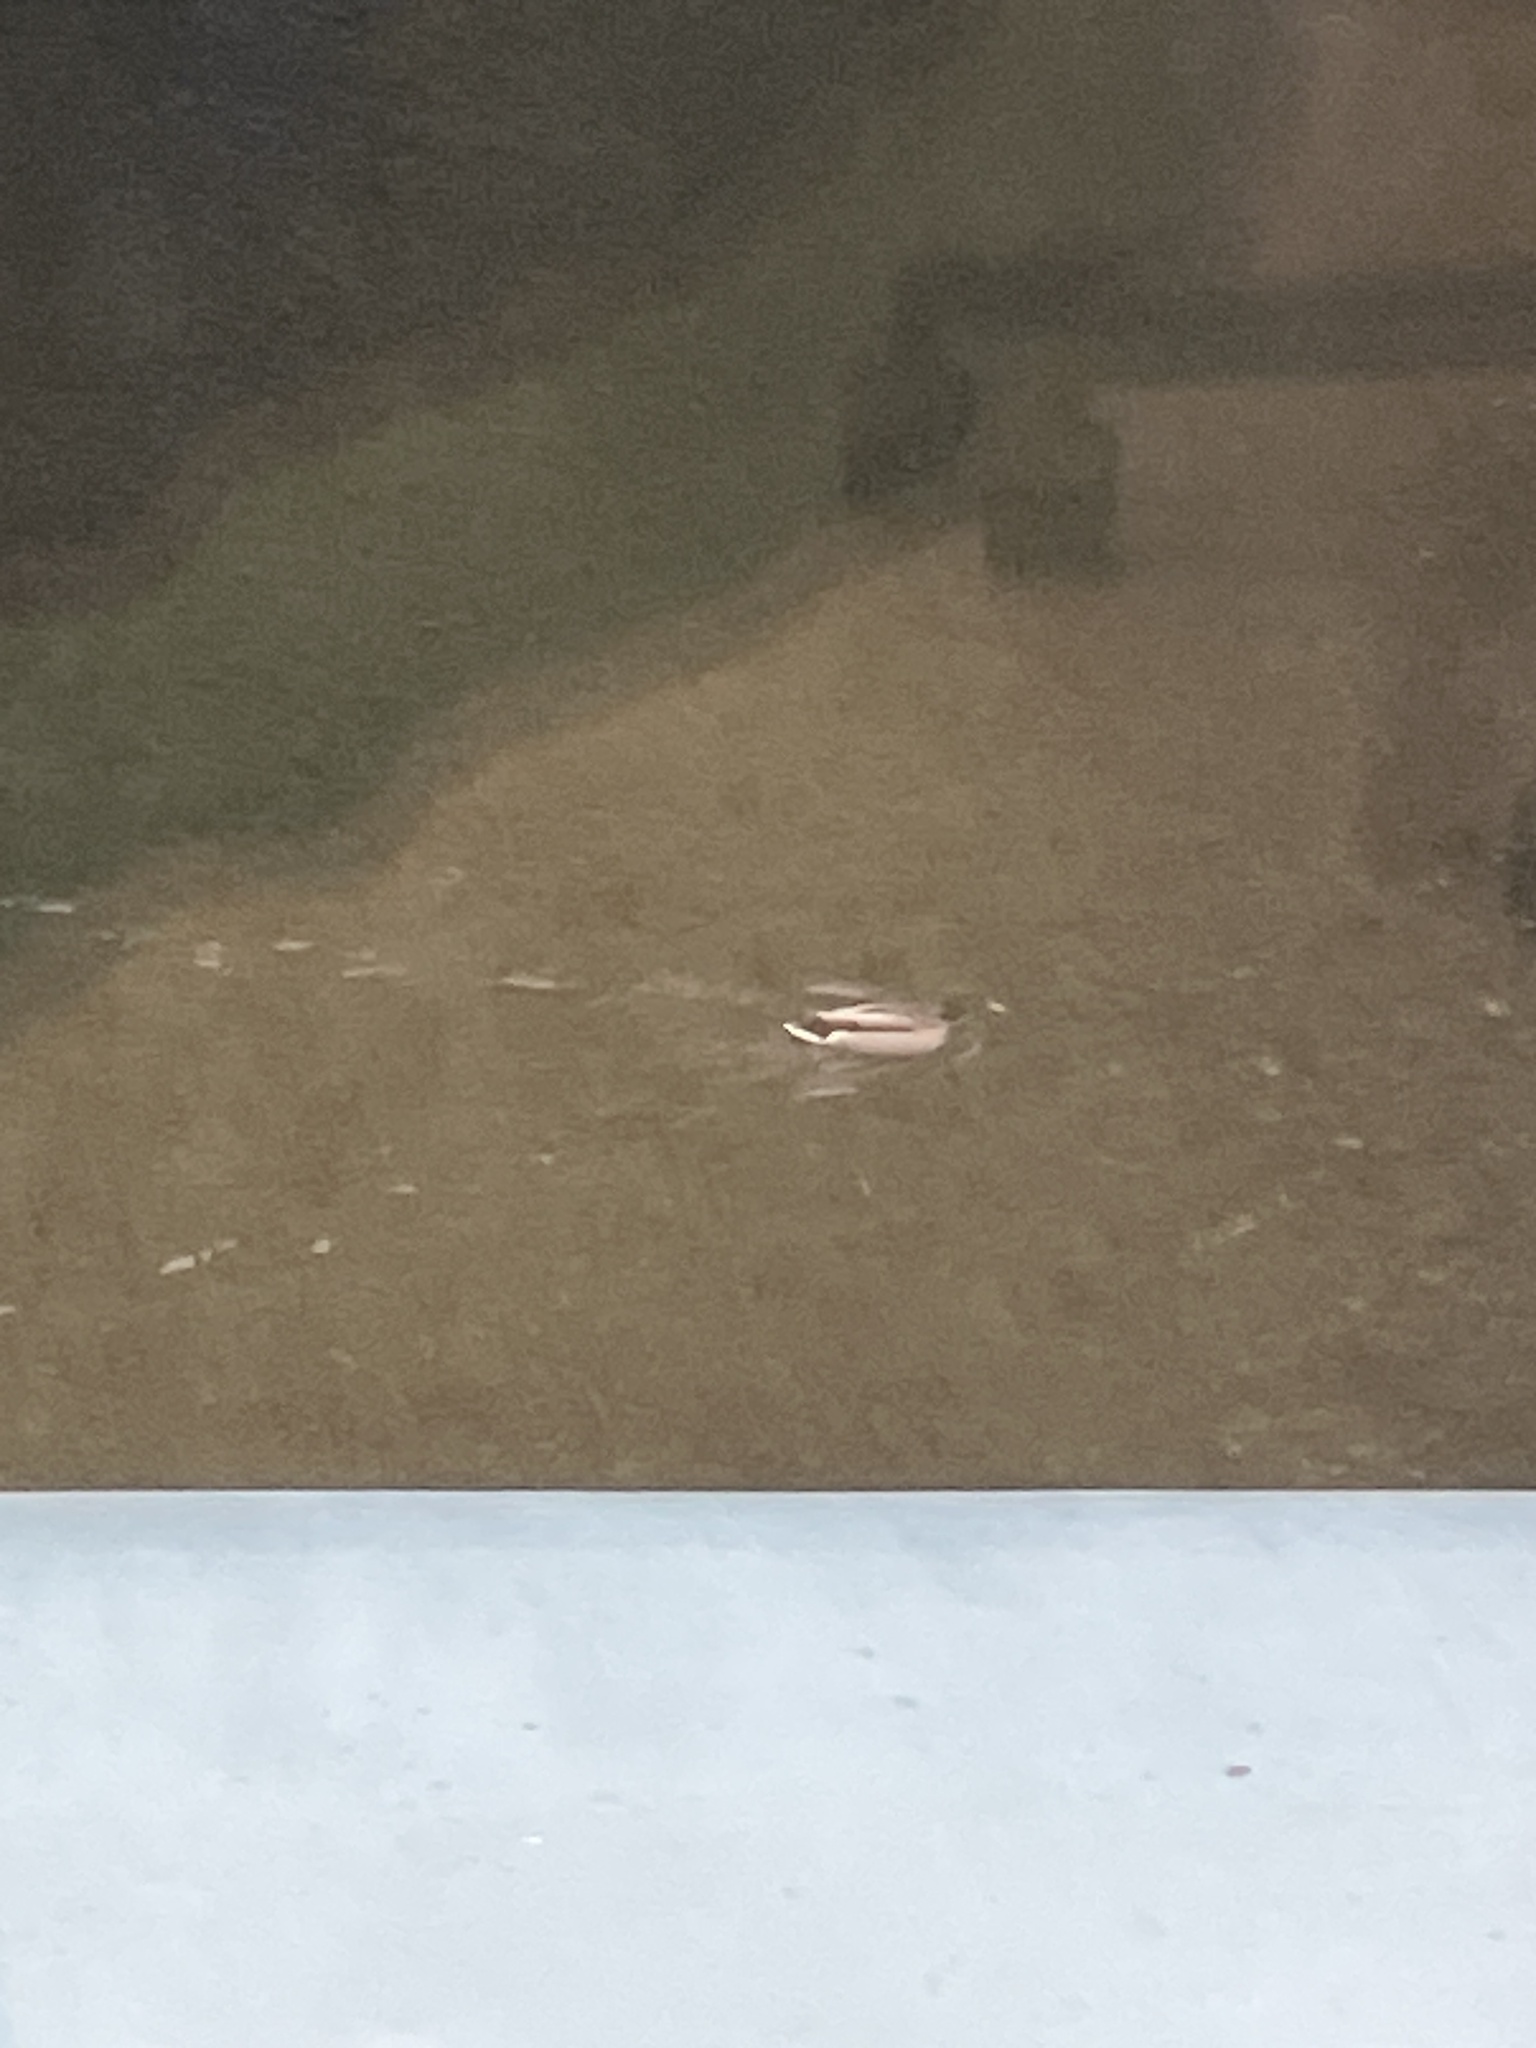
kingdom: Animalia
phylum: Chordata
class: Aves
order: Anseriformes
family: Anatidae
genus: Anas
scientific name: Anas platyrhynchos
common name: Mallard
